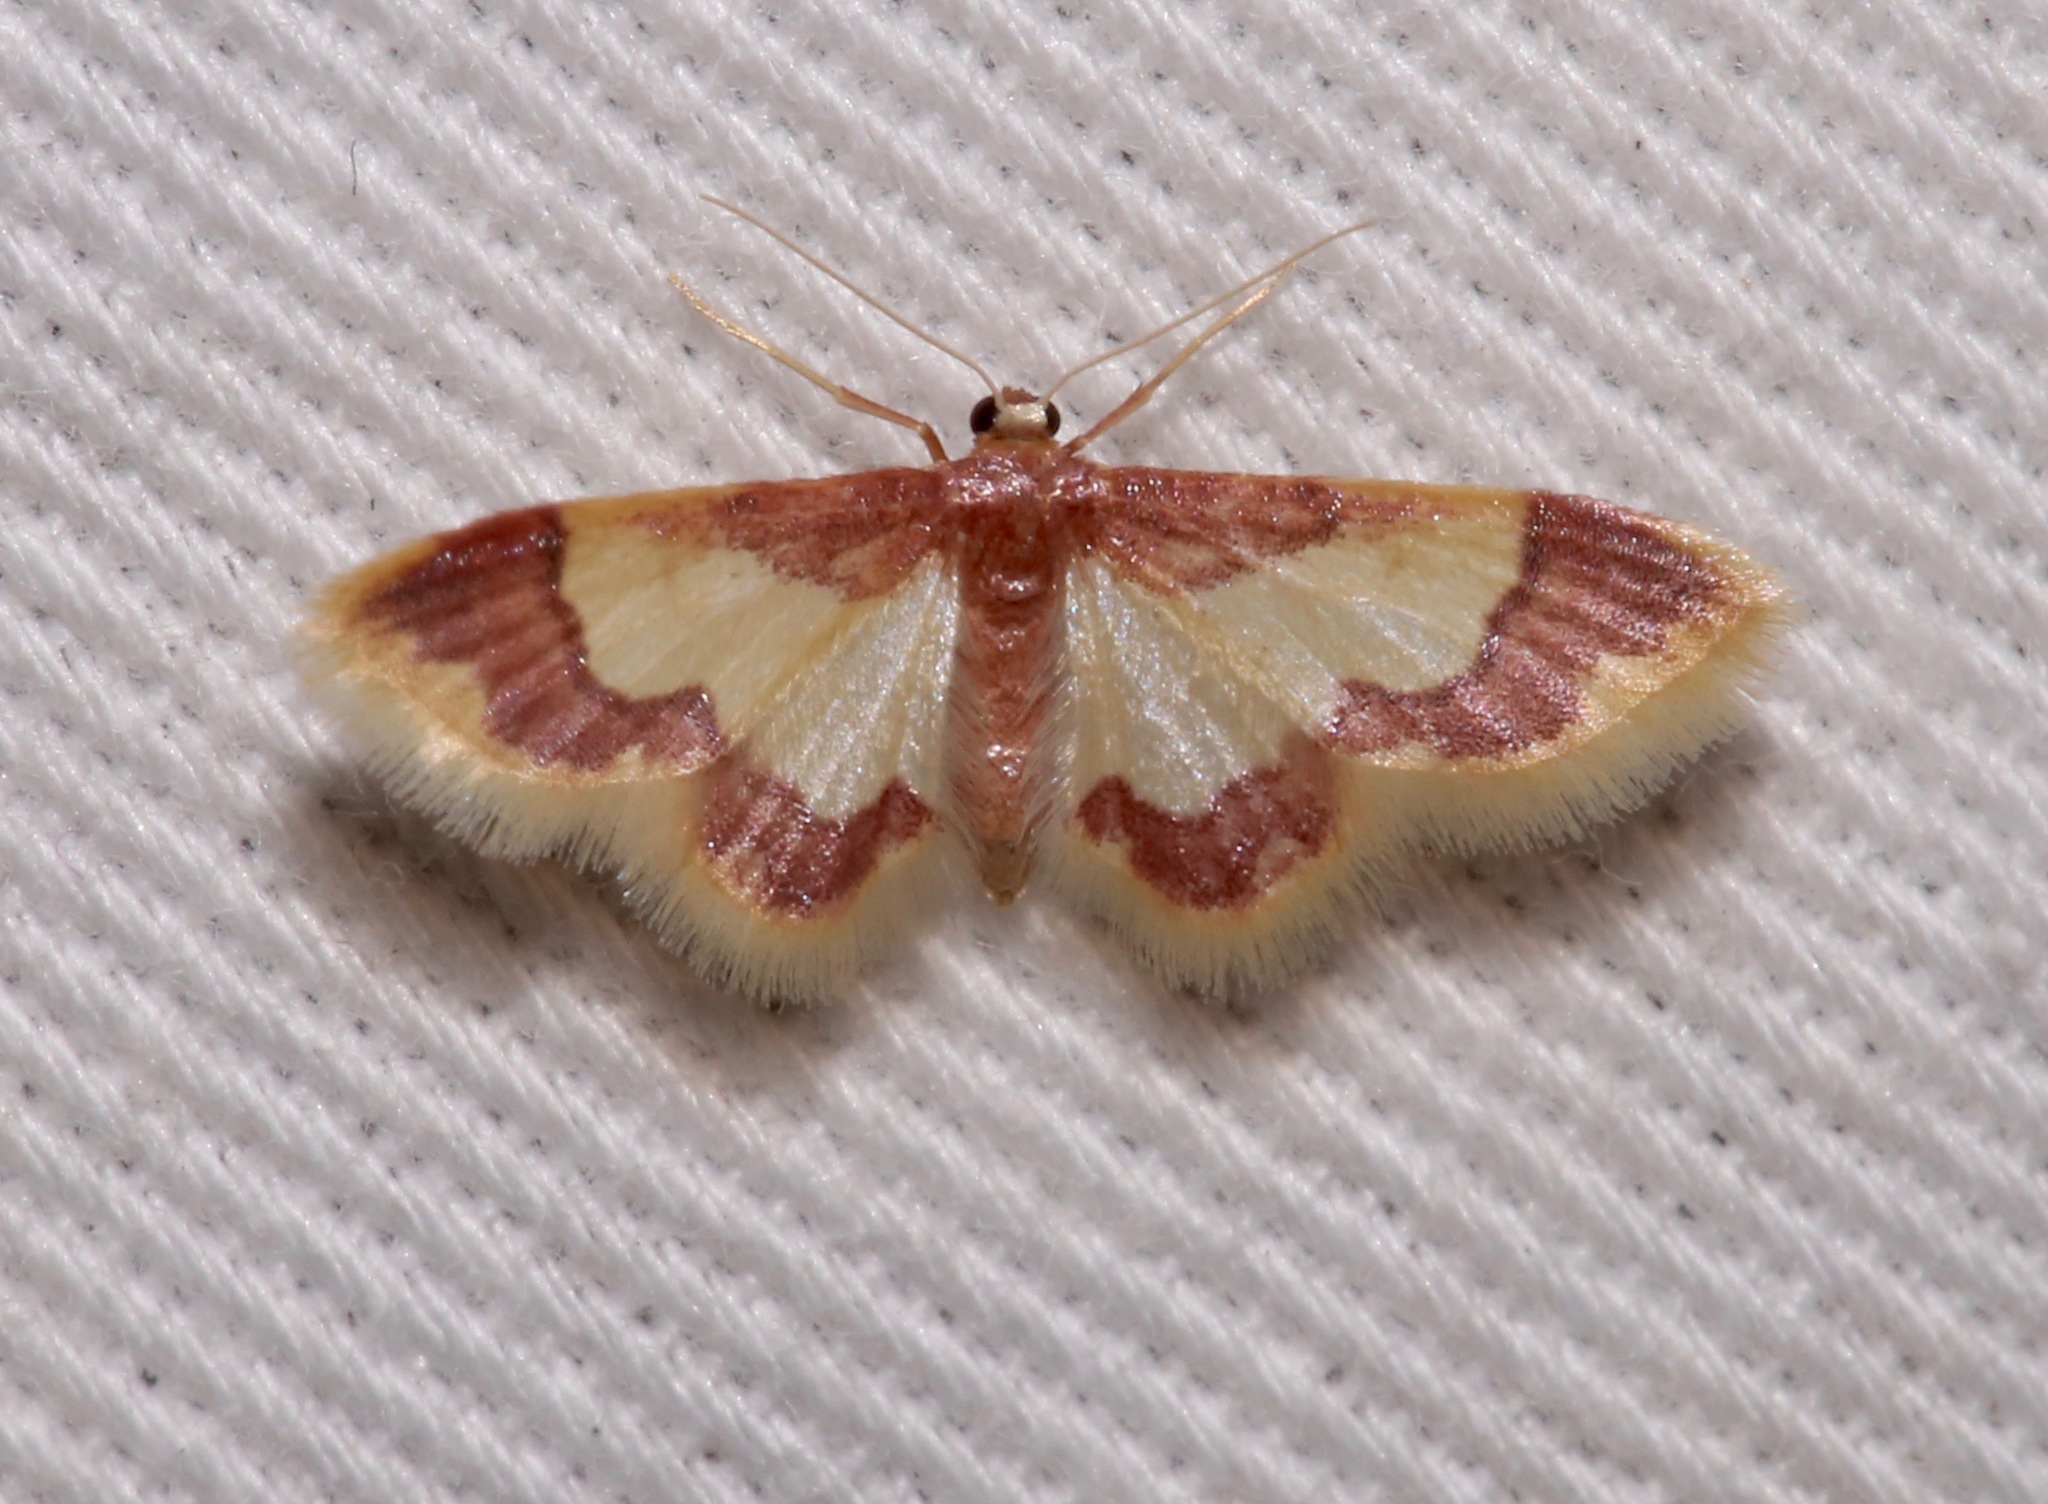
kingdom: Animalia
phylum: Arthropoda
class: Insecta
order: Lepidoptera
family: Geometridae
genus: Idaea
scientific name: Idaea basinta
